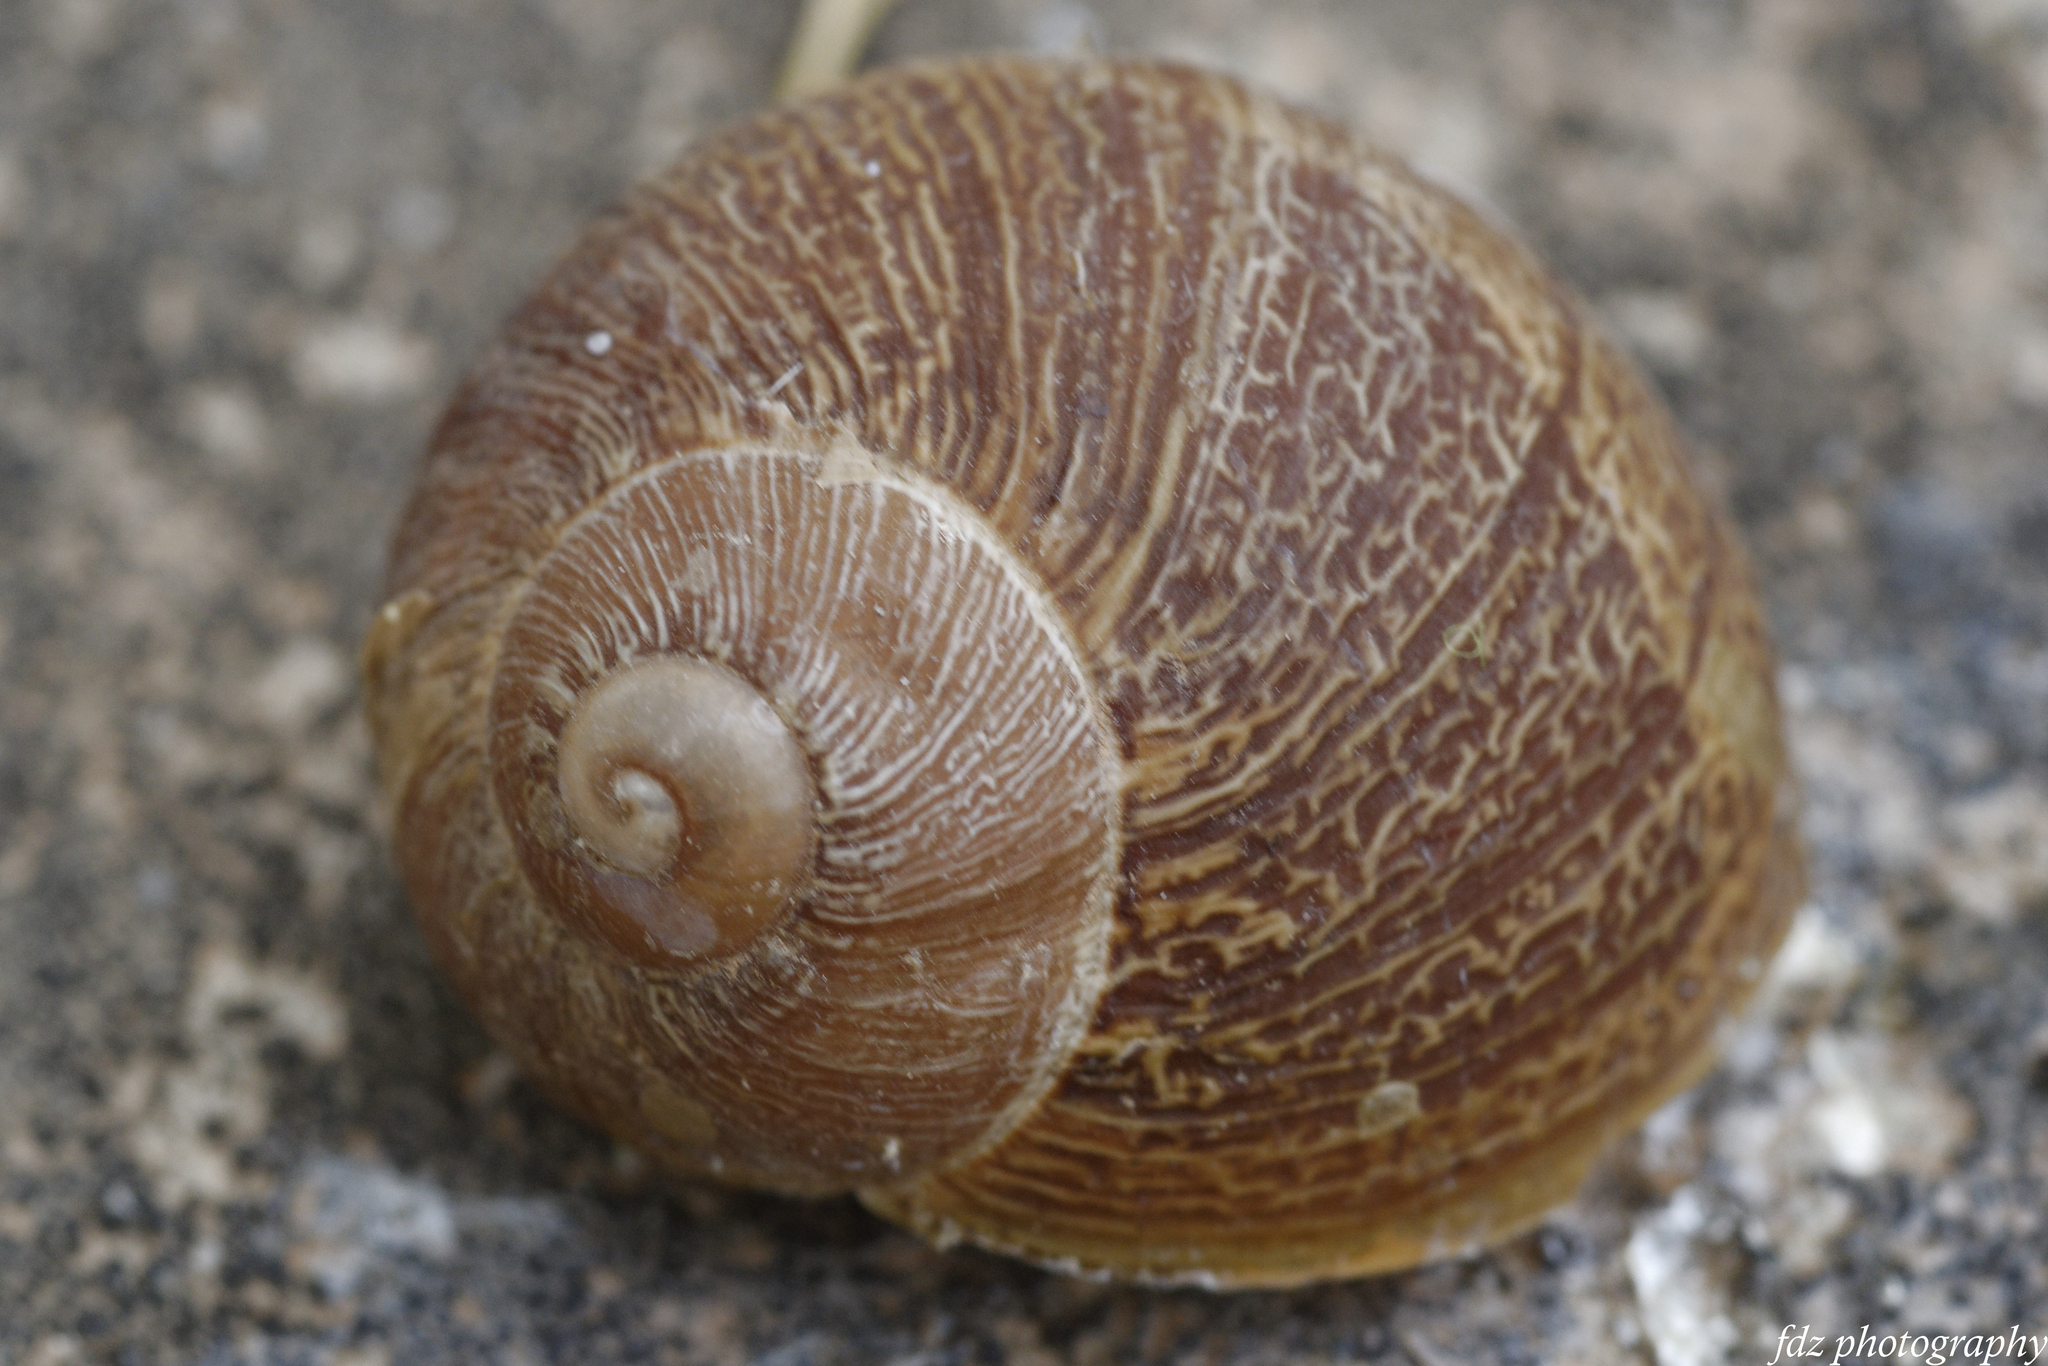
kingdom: Animalia
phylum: Mollusca
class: Gastropoda
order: Stylommatophora
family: Helicidae
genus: Cornu
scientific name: Cornu aspersum
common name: Brown garden snail
